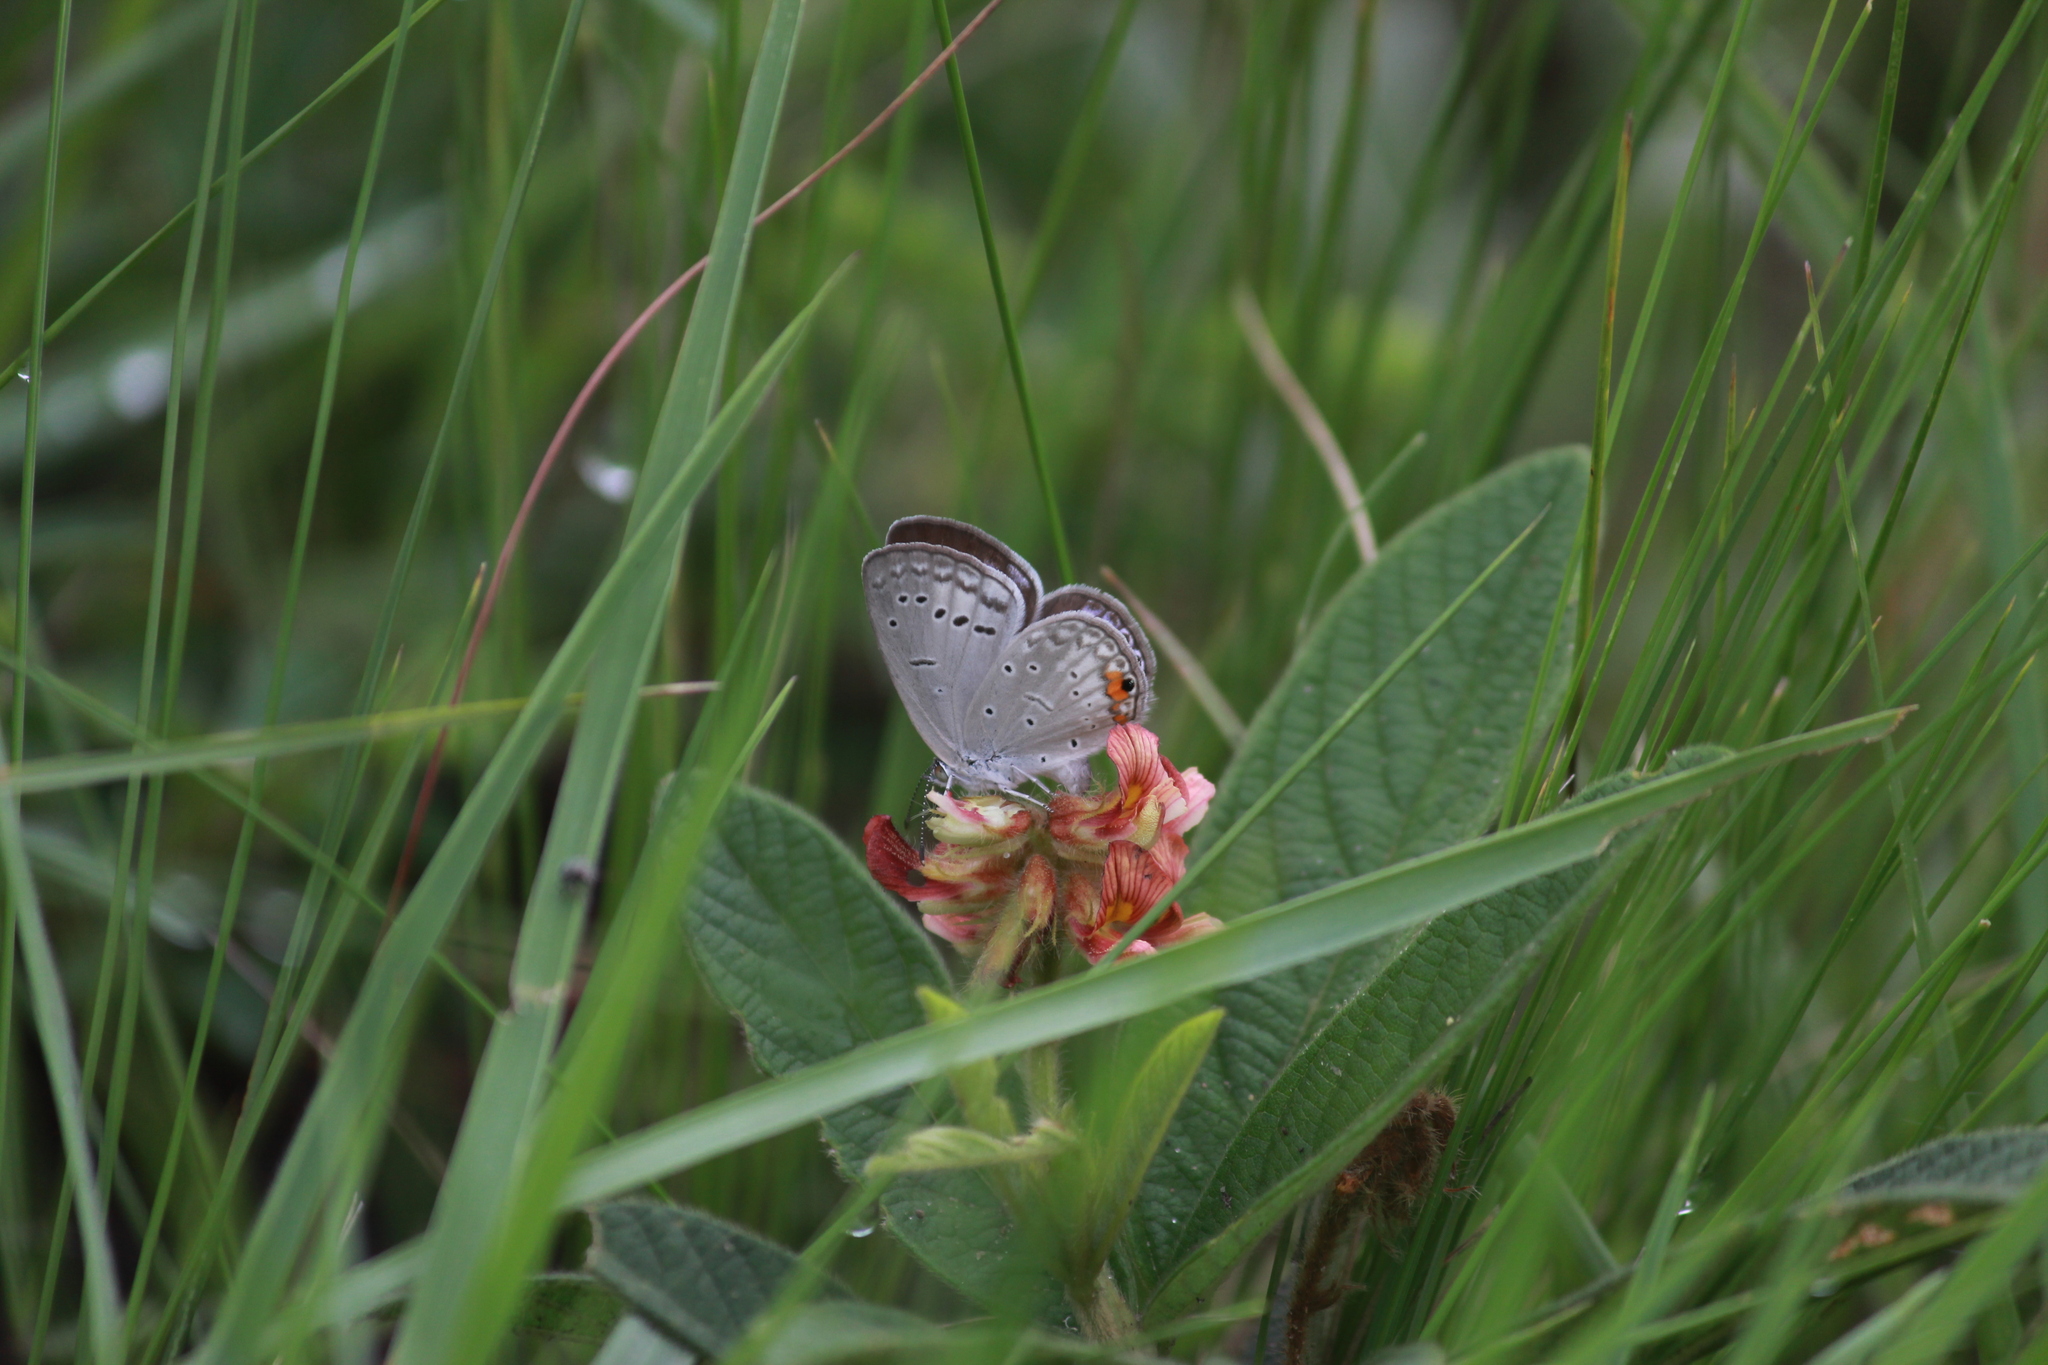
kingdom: Animalia
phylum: Arthropoda
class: Insecta
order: Lepidoptera
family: Lycaenidae
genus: Cupido
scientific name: Cupido cissus
